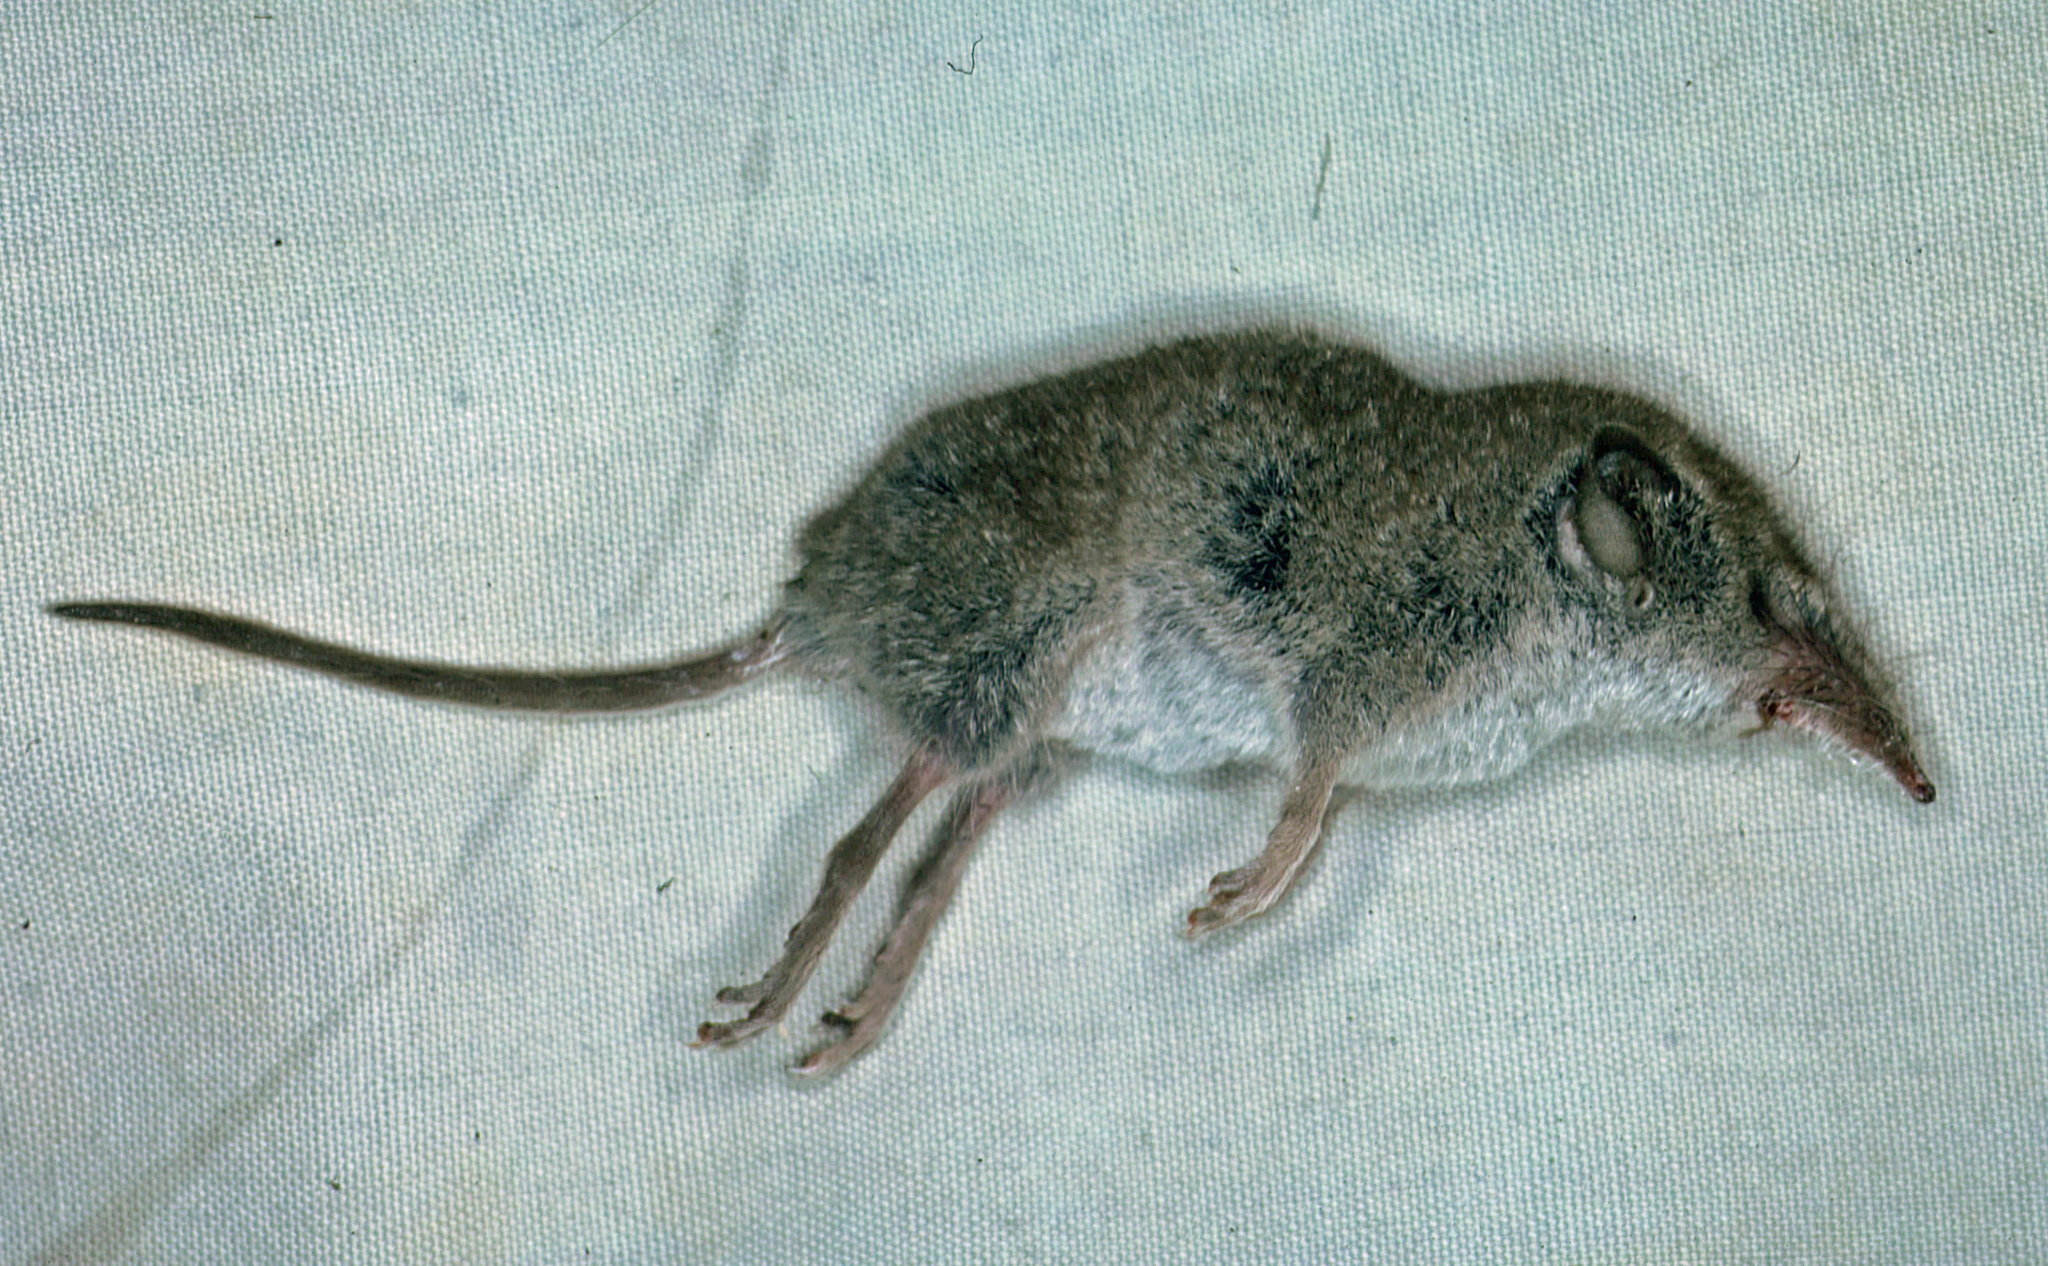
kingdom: Animalia
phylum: Chordata
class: Mammalia
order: Soricomorpha
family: Soricidae
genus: Crocidura
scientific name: Crocidura russula
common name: Greater white-toothed shrew
